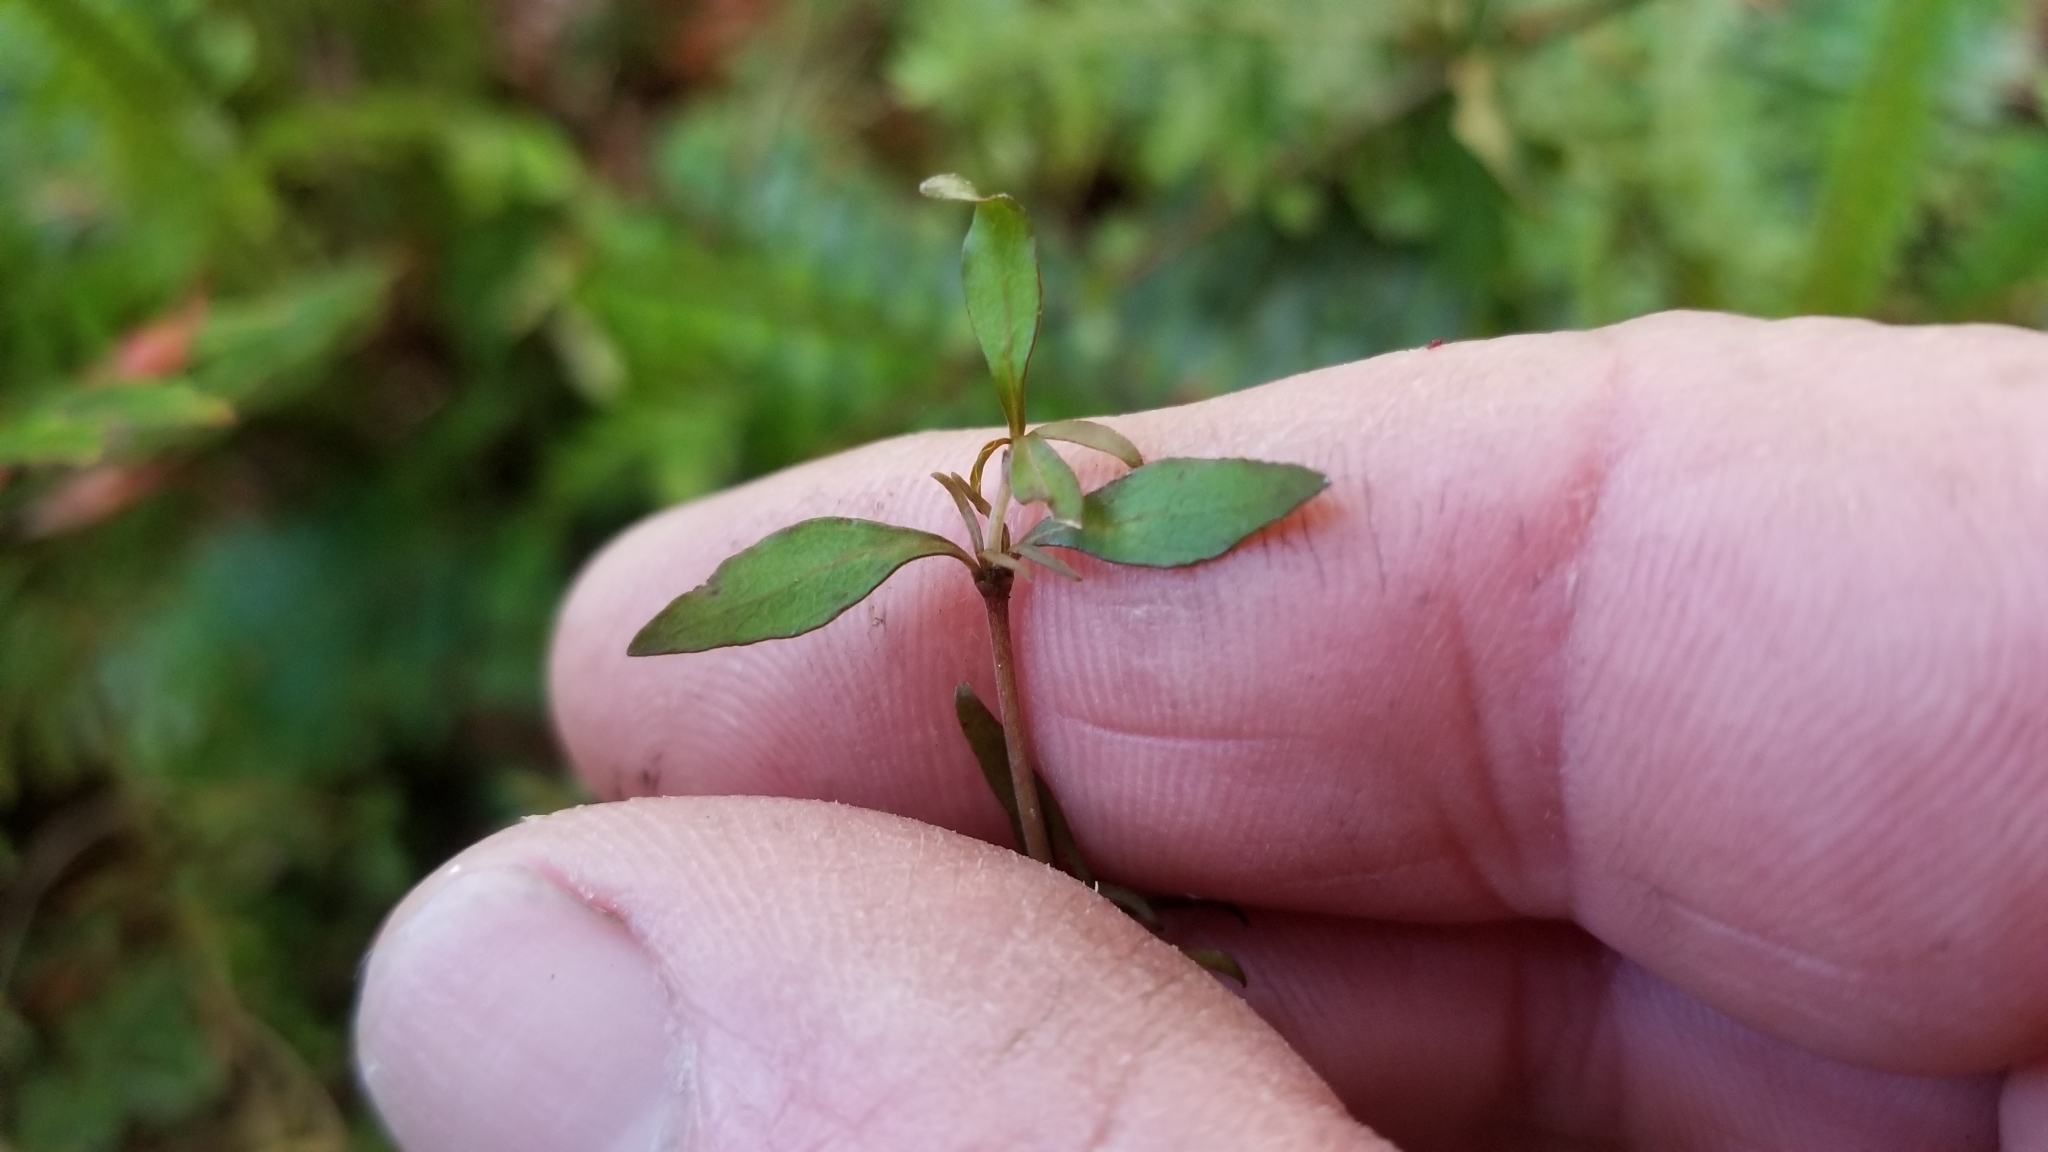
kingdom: Plantae
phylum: Tracheophyta
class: Magnoliopsida
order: Gentianales
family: Rubiaceae
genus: Coprosma
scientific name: Coprosma rhamnoides
